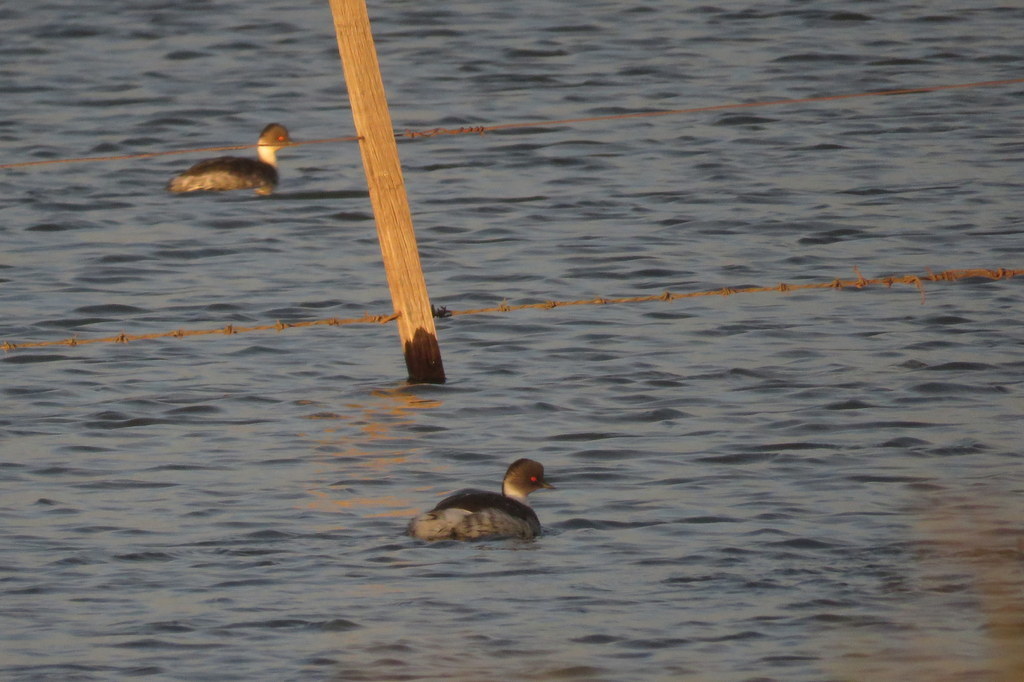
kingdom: Animalia
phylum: Chordata
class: Aves
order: Podicipediformes
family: Podicipedidae
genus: Podiceps
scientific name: Podiceps occipitalis
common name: Silvery grebe
